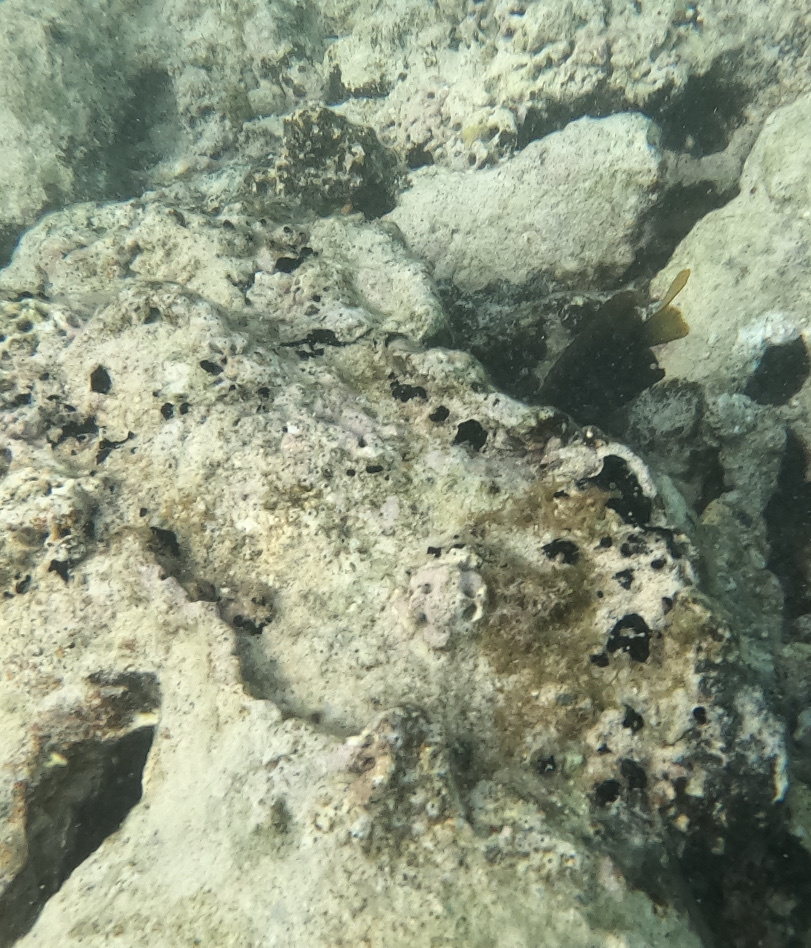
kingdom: Animalia
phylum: Porifera
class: Demospongiae
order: Tethyida
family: Tethyidae
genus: Tectitethya
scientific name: Tectitethya crypta
